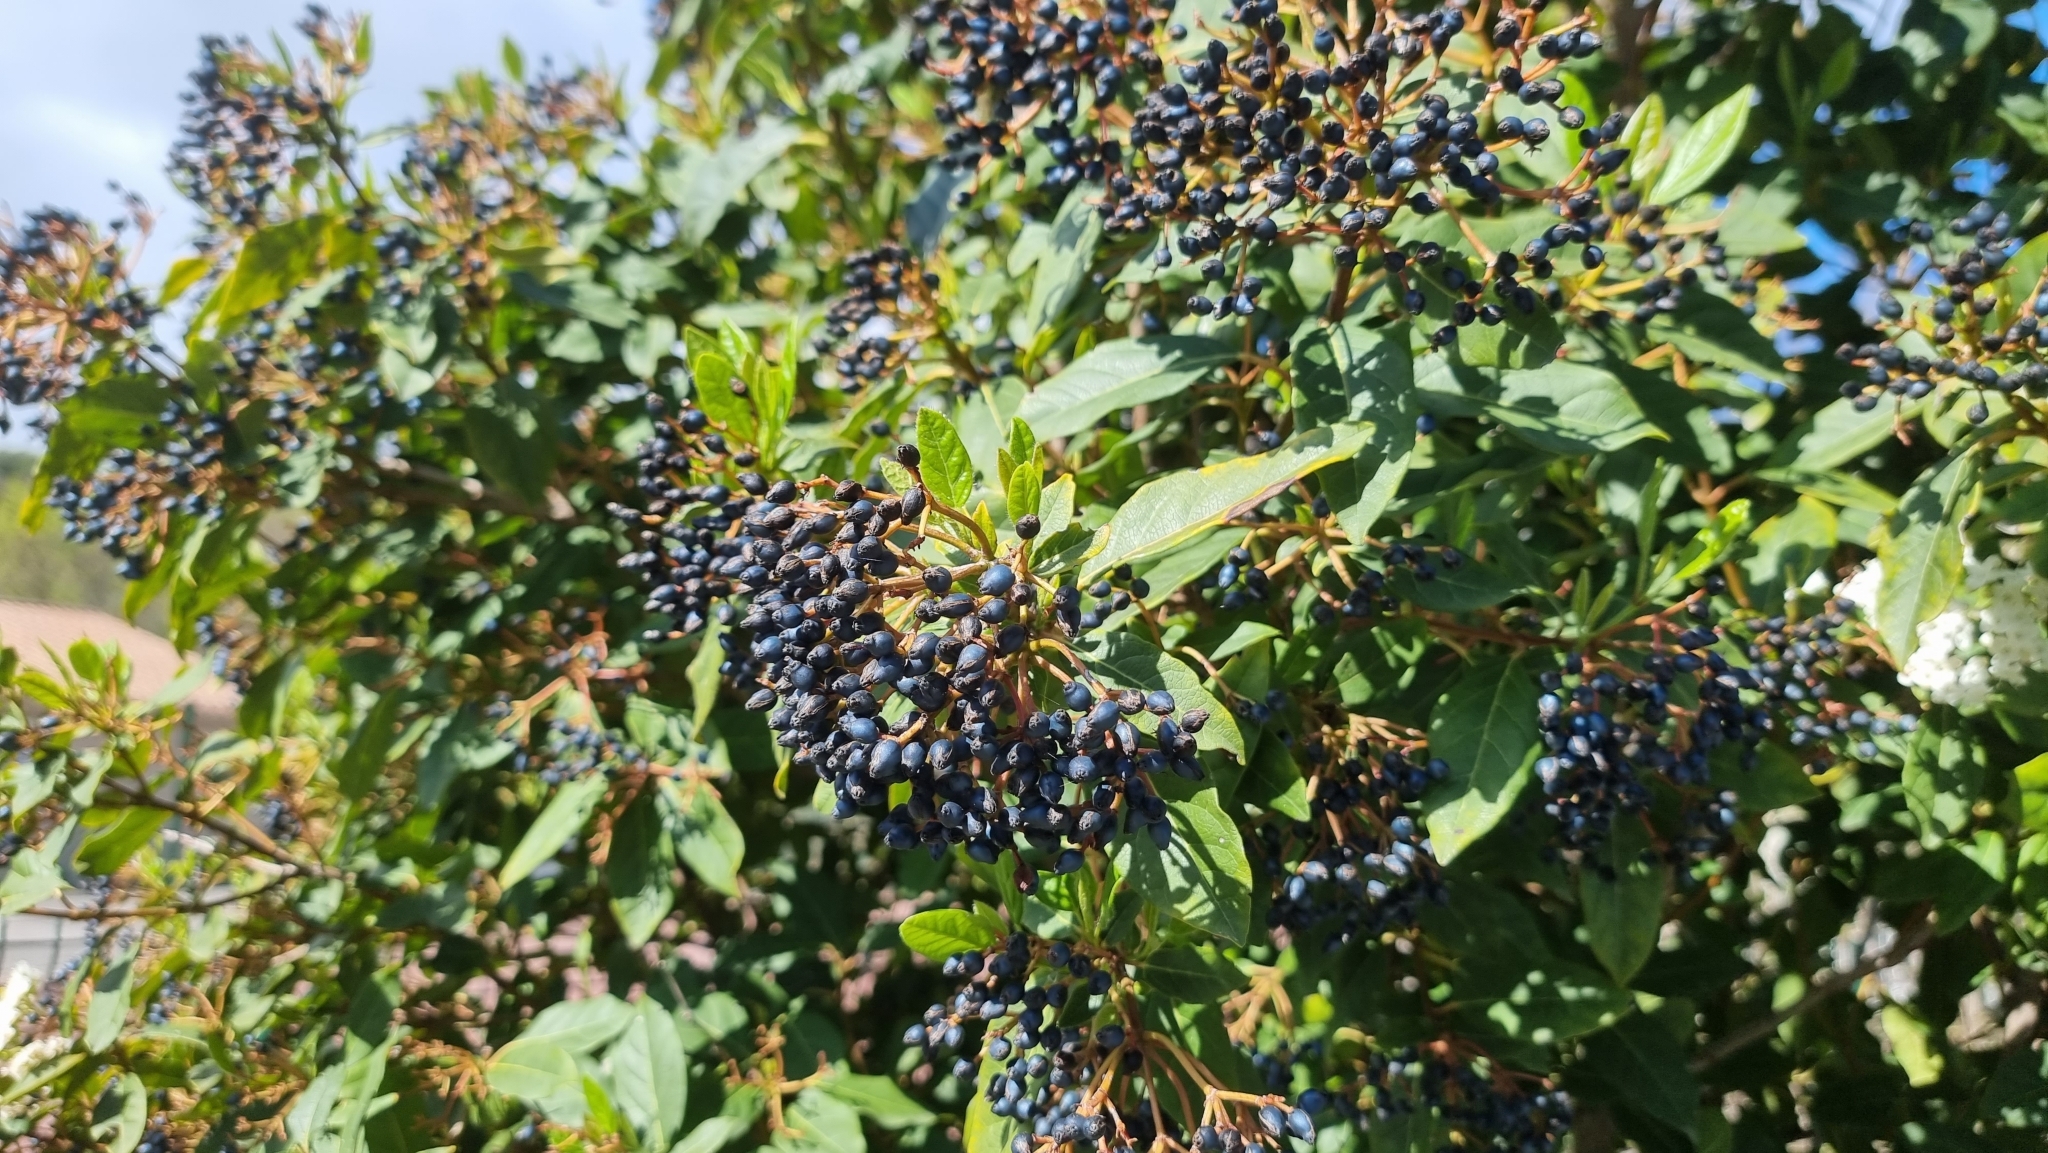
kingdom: Plantae
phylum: Tracheophyta
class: Magnoliopsida
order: Dipsacales
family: Viburnaceae
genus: Viburnum
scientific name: Viburnum tinus
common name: Laurustinus
